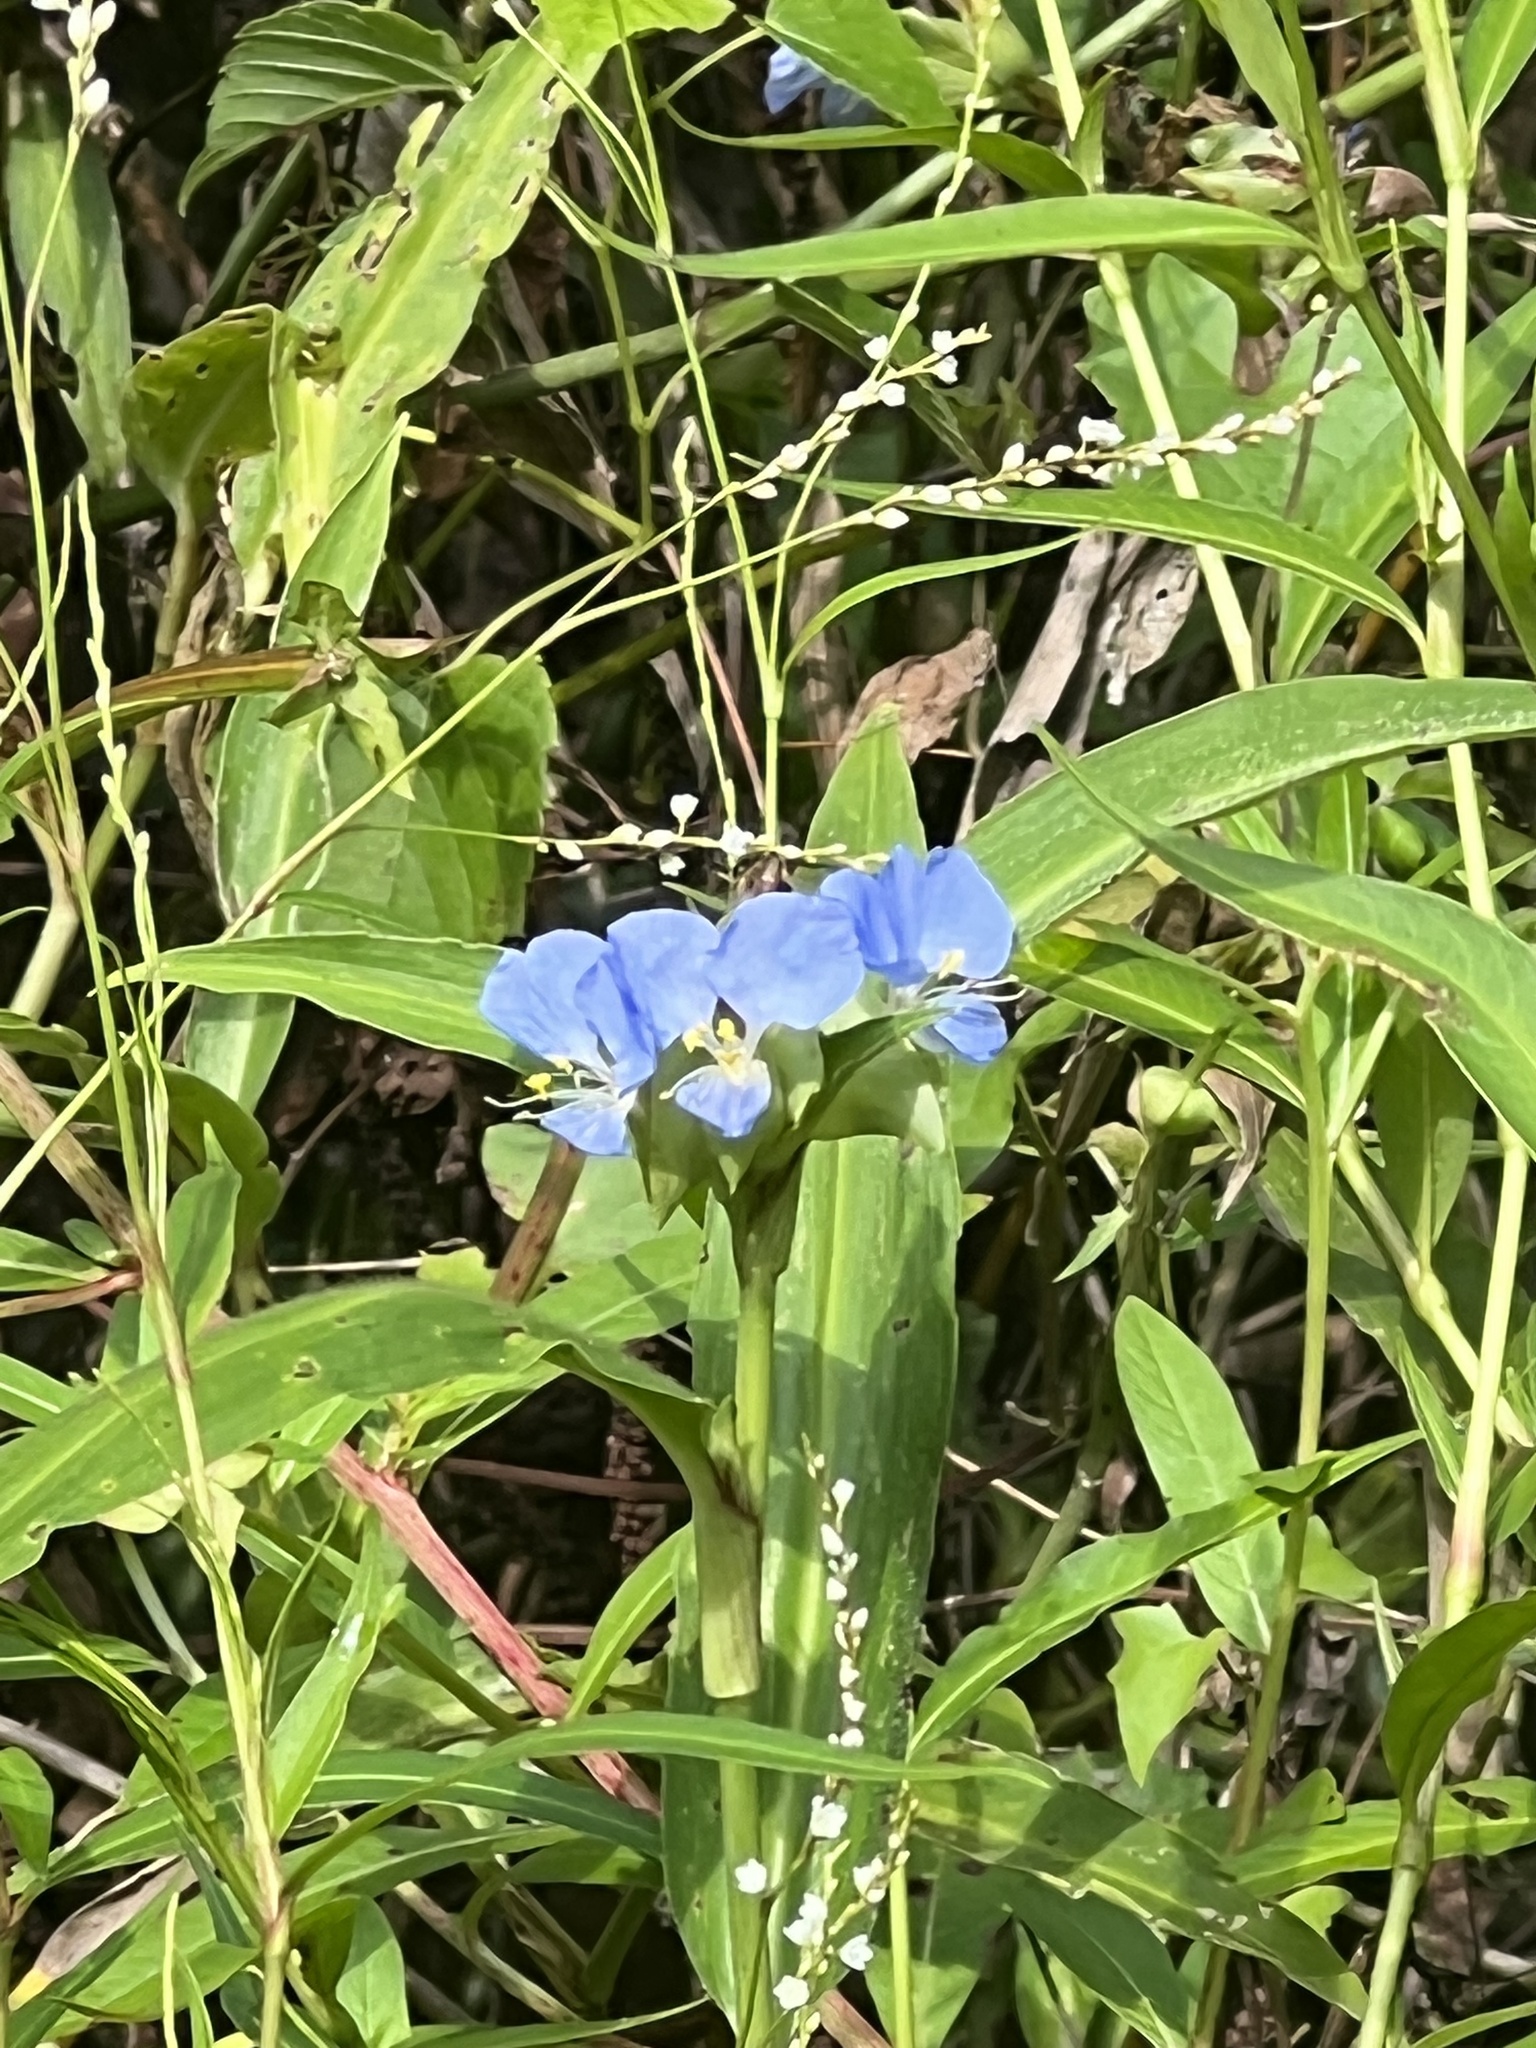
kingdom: Plantae
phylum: Tracheophyta
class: Liliopsida
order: Commelinales
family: Commelinaceae
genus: Commelina
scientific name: Commelina virginica
